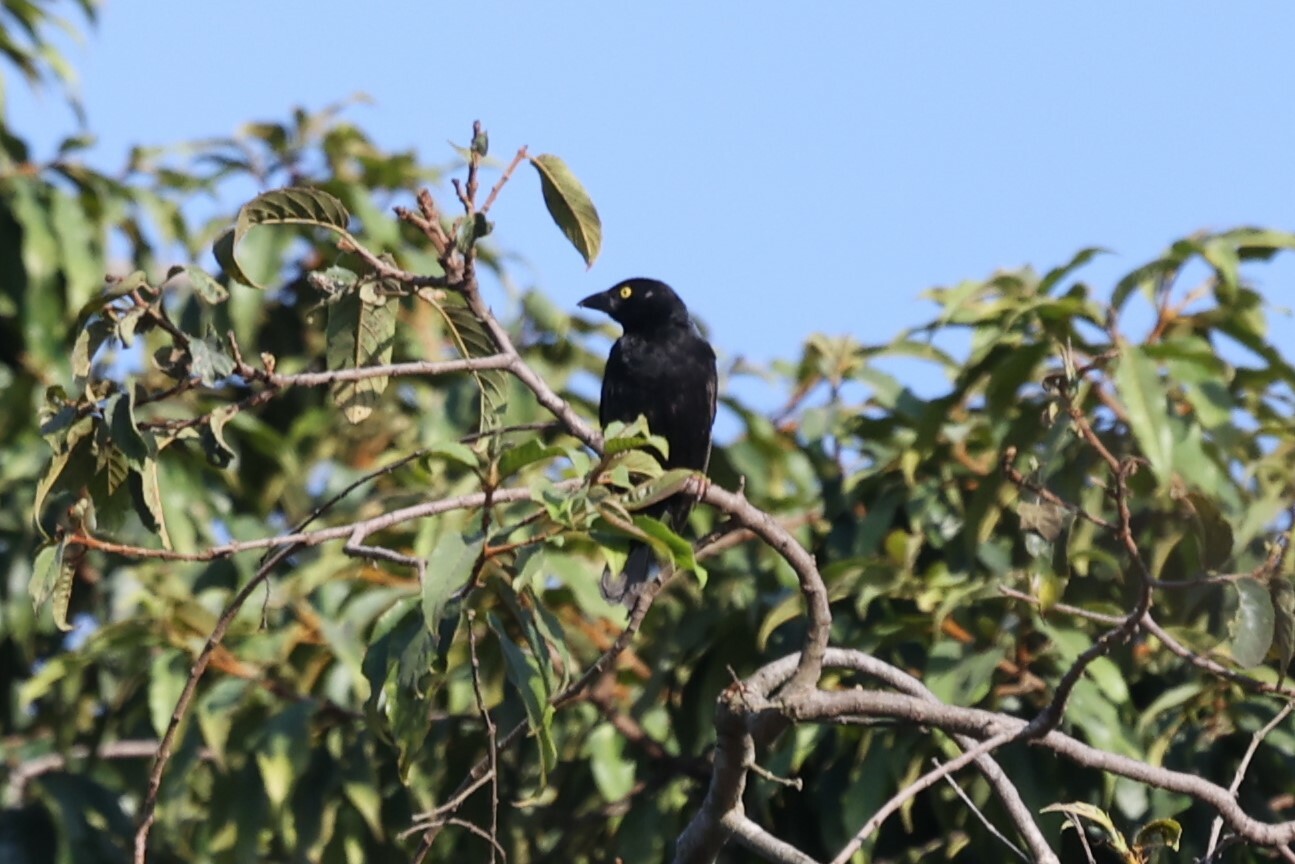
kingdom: Animalia
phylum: Chordata
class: Aves
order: Passeriformes
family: Ploceidae
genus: Ploceus
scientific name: Ploceus nigerrimus
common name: Vieillot's black weaver
